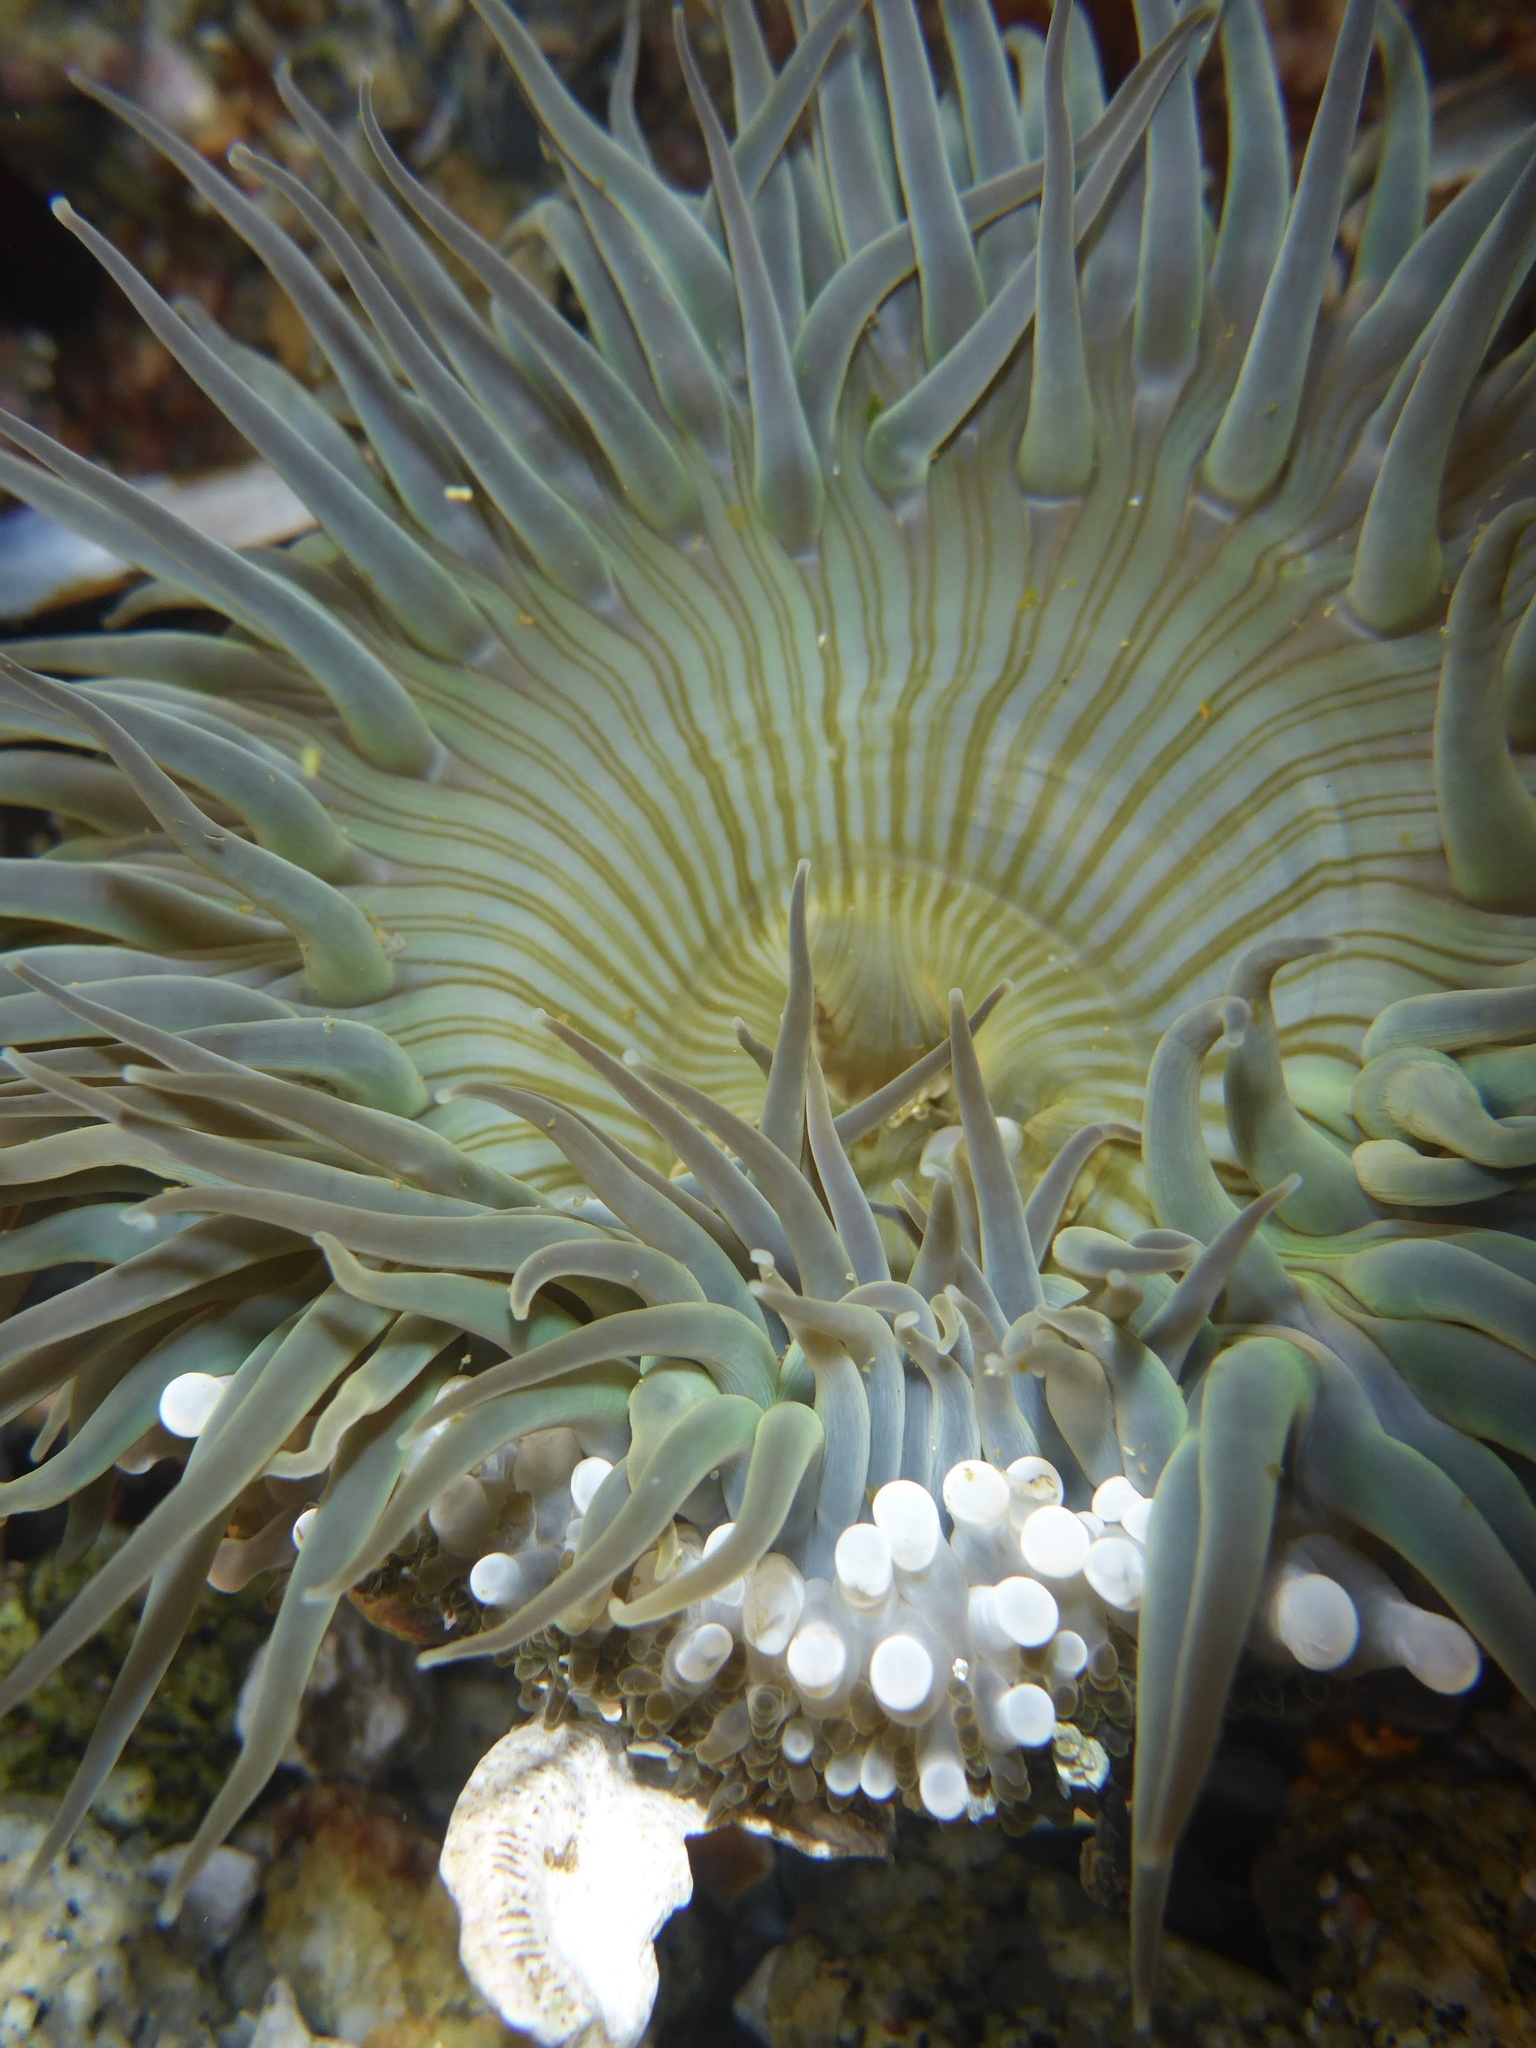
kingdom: Animalia
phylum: Cnidaria
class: Anthozoa
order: Actiniaria
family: Actiniidae
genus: Anthopleura
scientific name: Anthopleura sola
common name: Sun anemone
